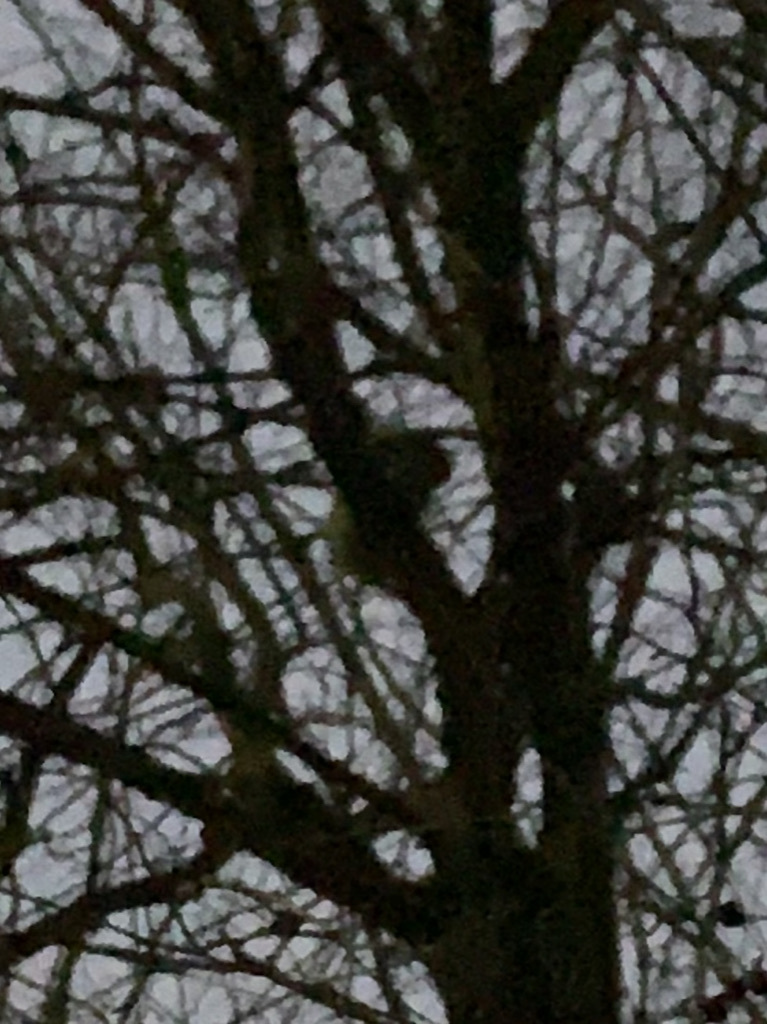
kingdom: Animalia
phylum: Chordata
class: Mammalia
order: Rodentia
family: Sciuridae
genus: Sciurus
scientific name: Sciurus carolinensis
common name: Eastern gray squirrel
